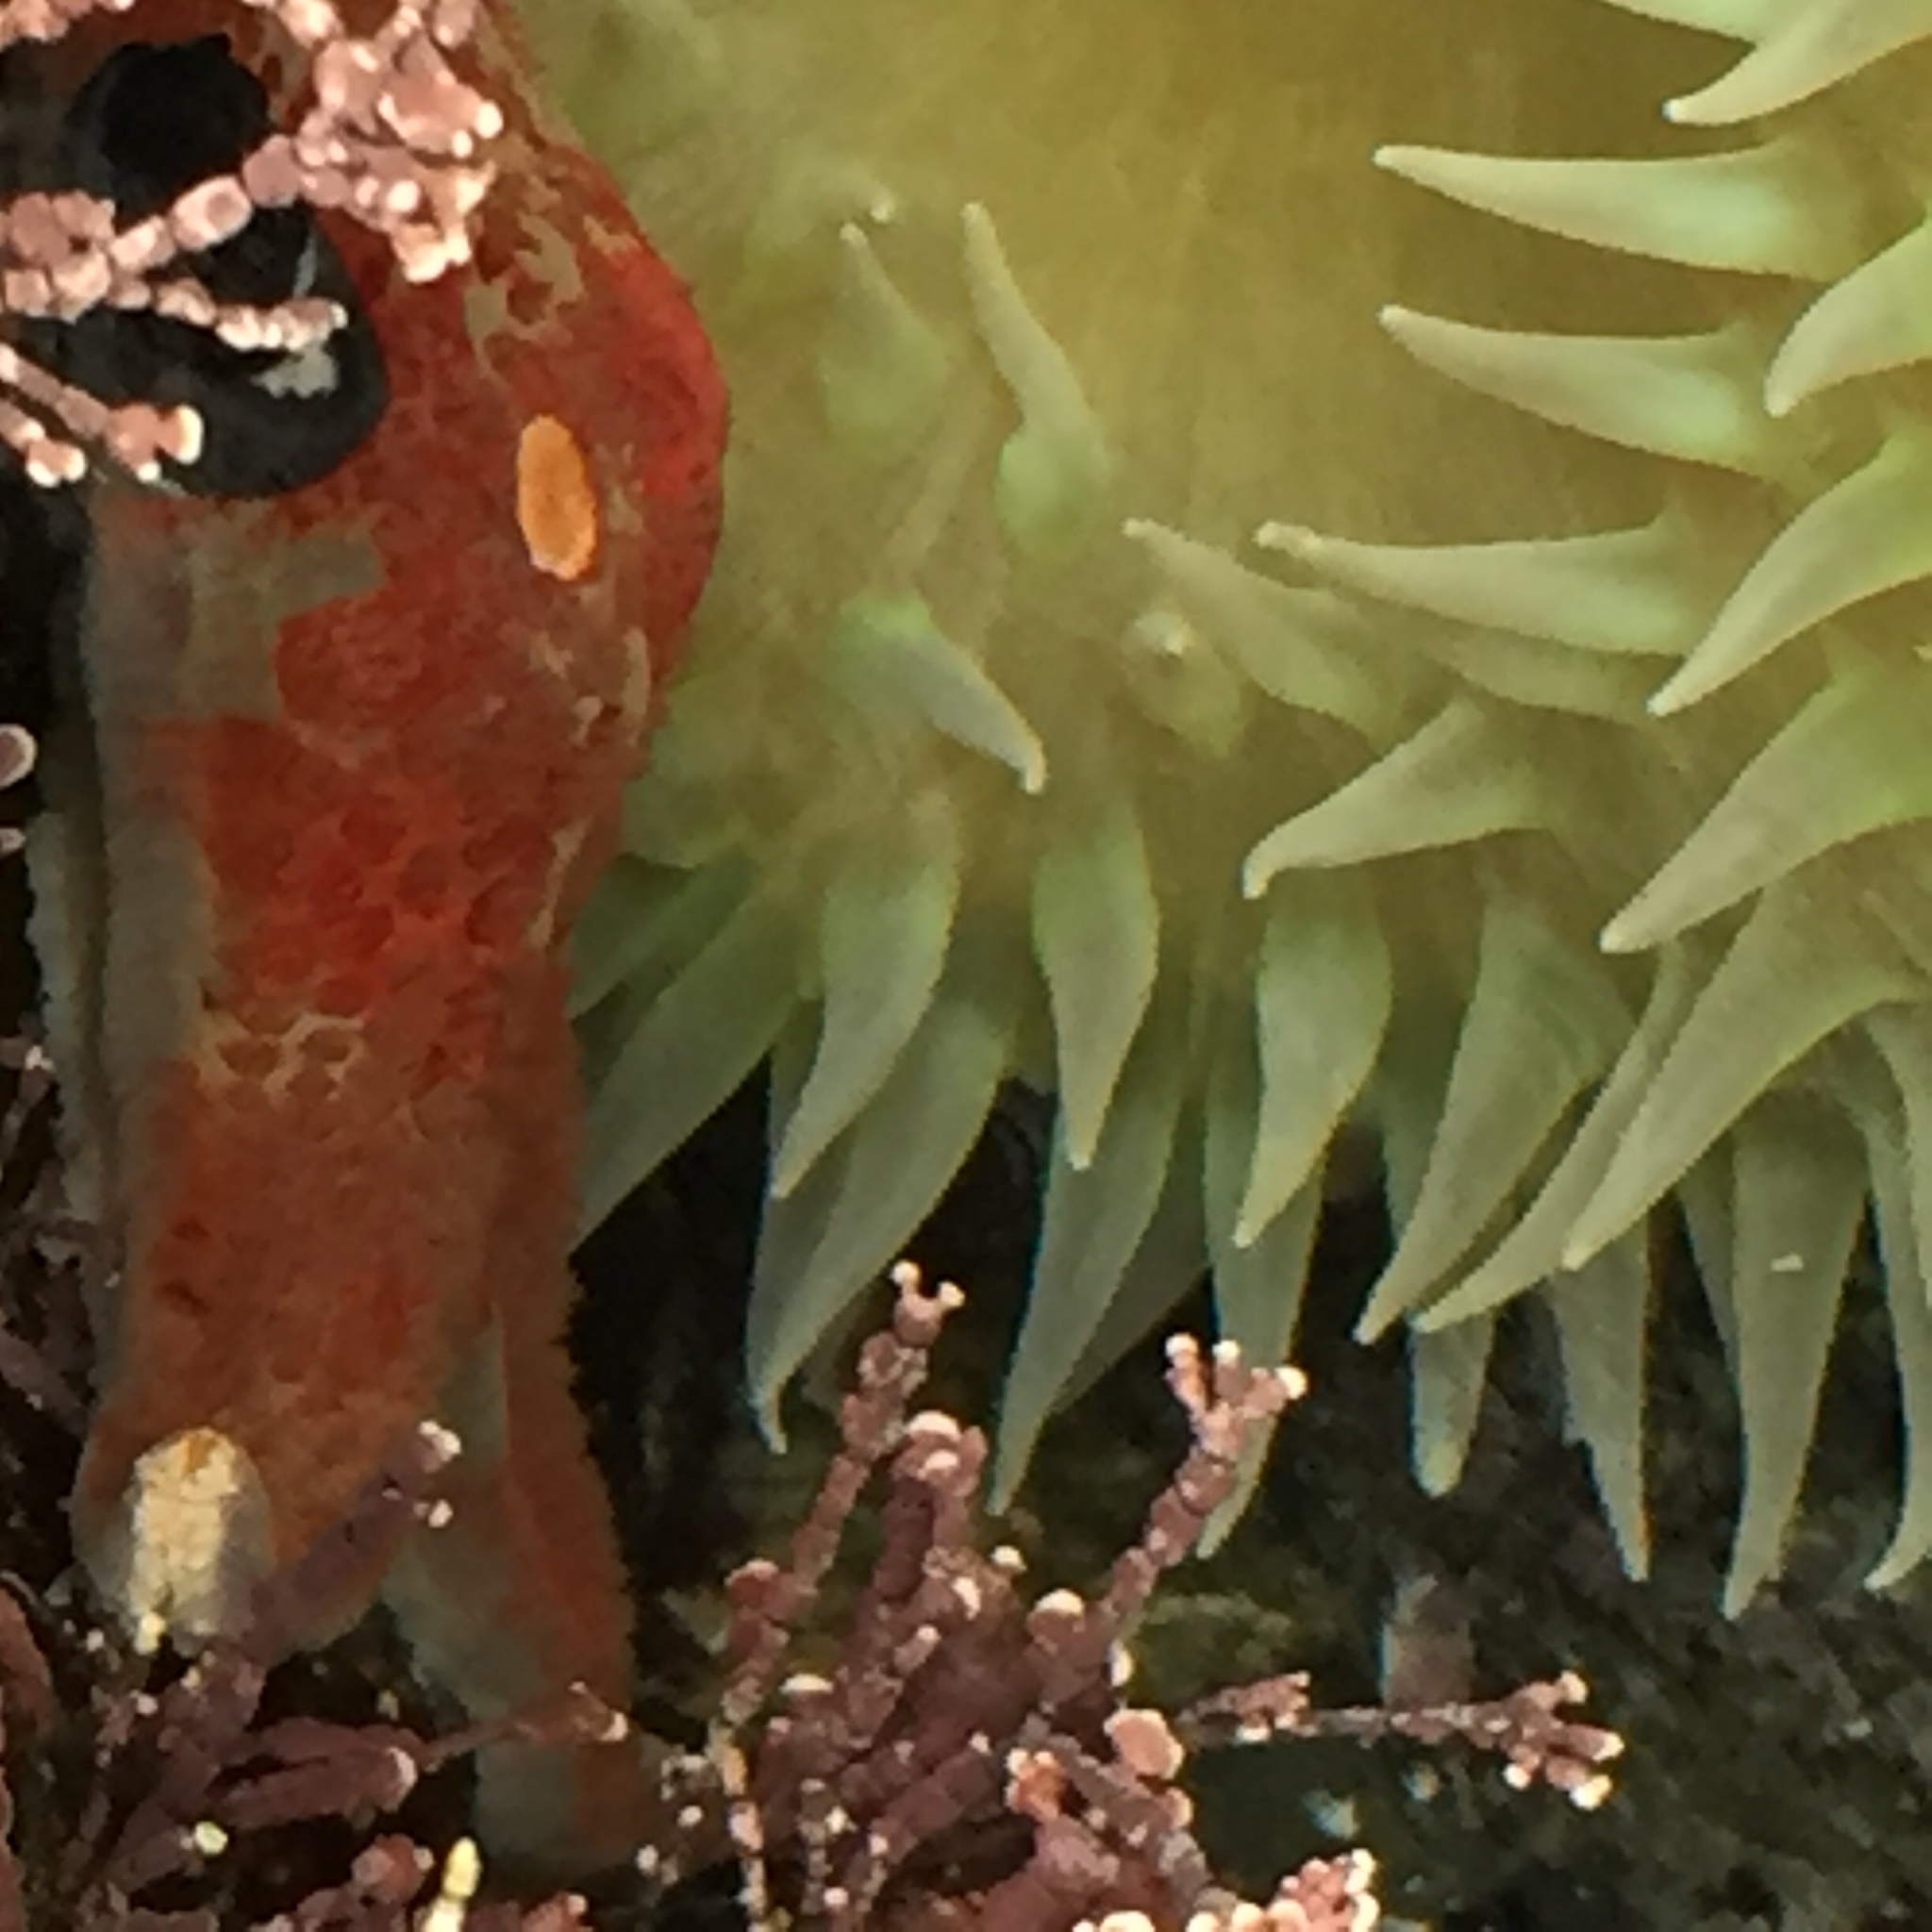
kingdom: Animalia
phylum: Echinodermata
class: Asteroidea
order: Valvatida
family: Asteropseidae
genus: Dermasterias
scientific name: Dermasterias imbricata
